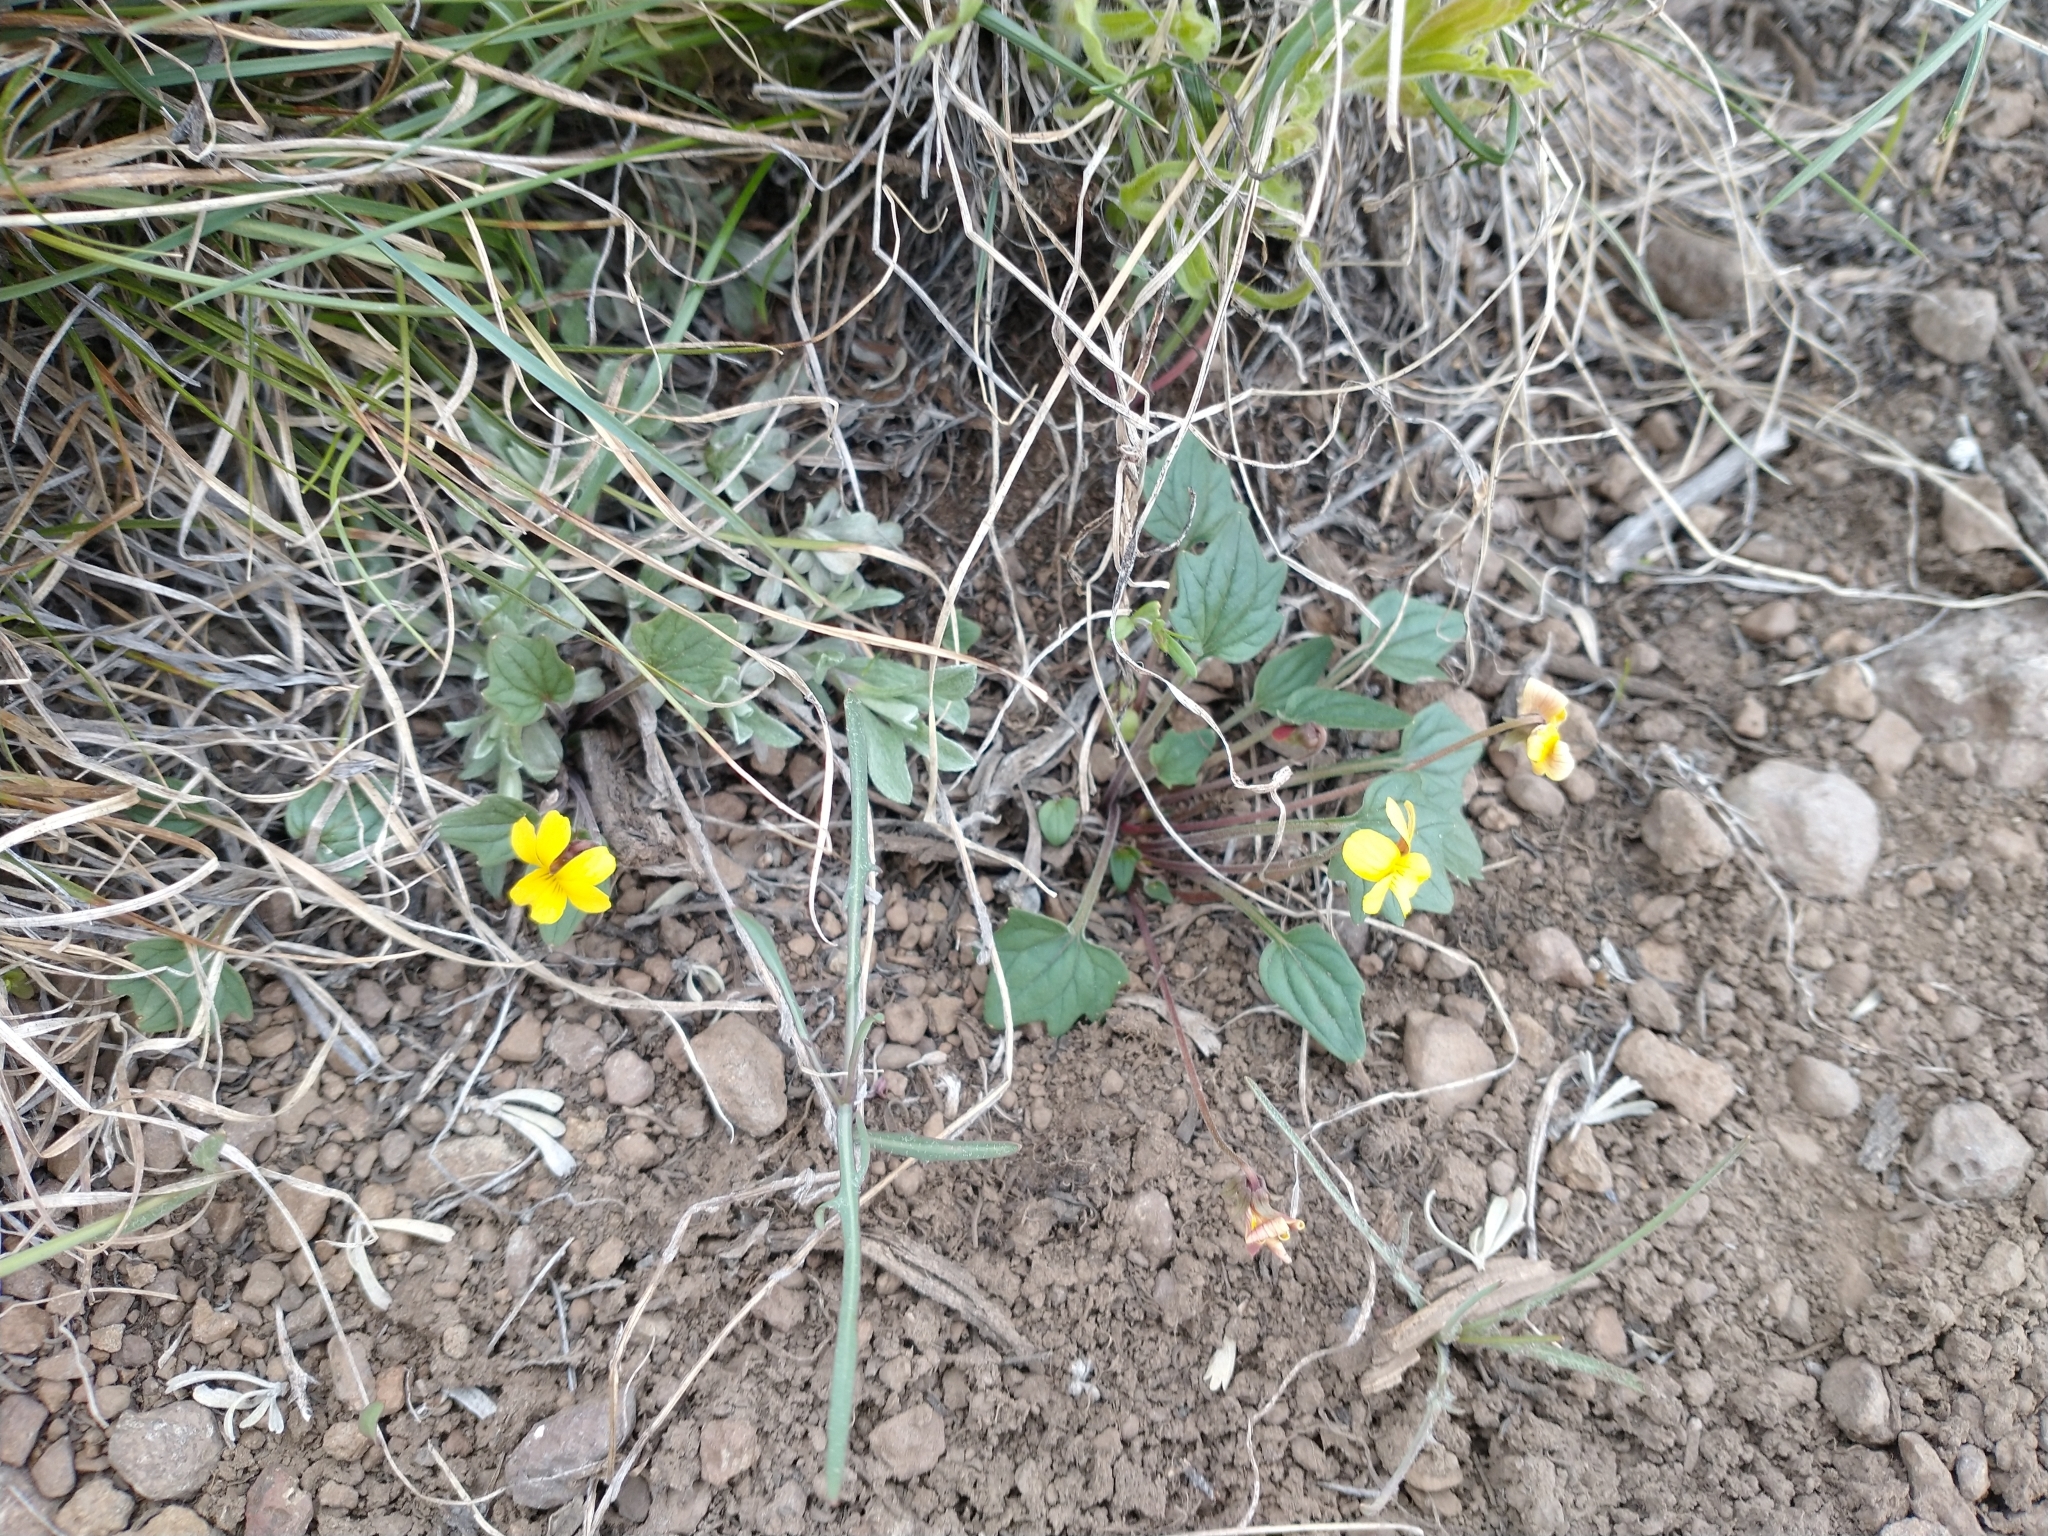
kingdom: Plantae
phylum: Tracheophyta
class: Magnoliopsida
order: Malpighiales
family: Violaceae
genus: Viola
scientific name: Viola purpurea
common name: Pine violet
